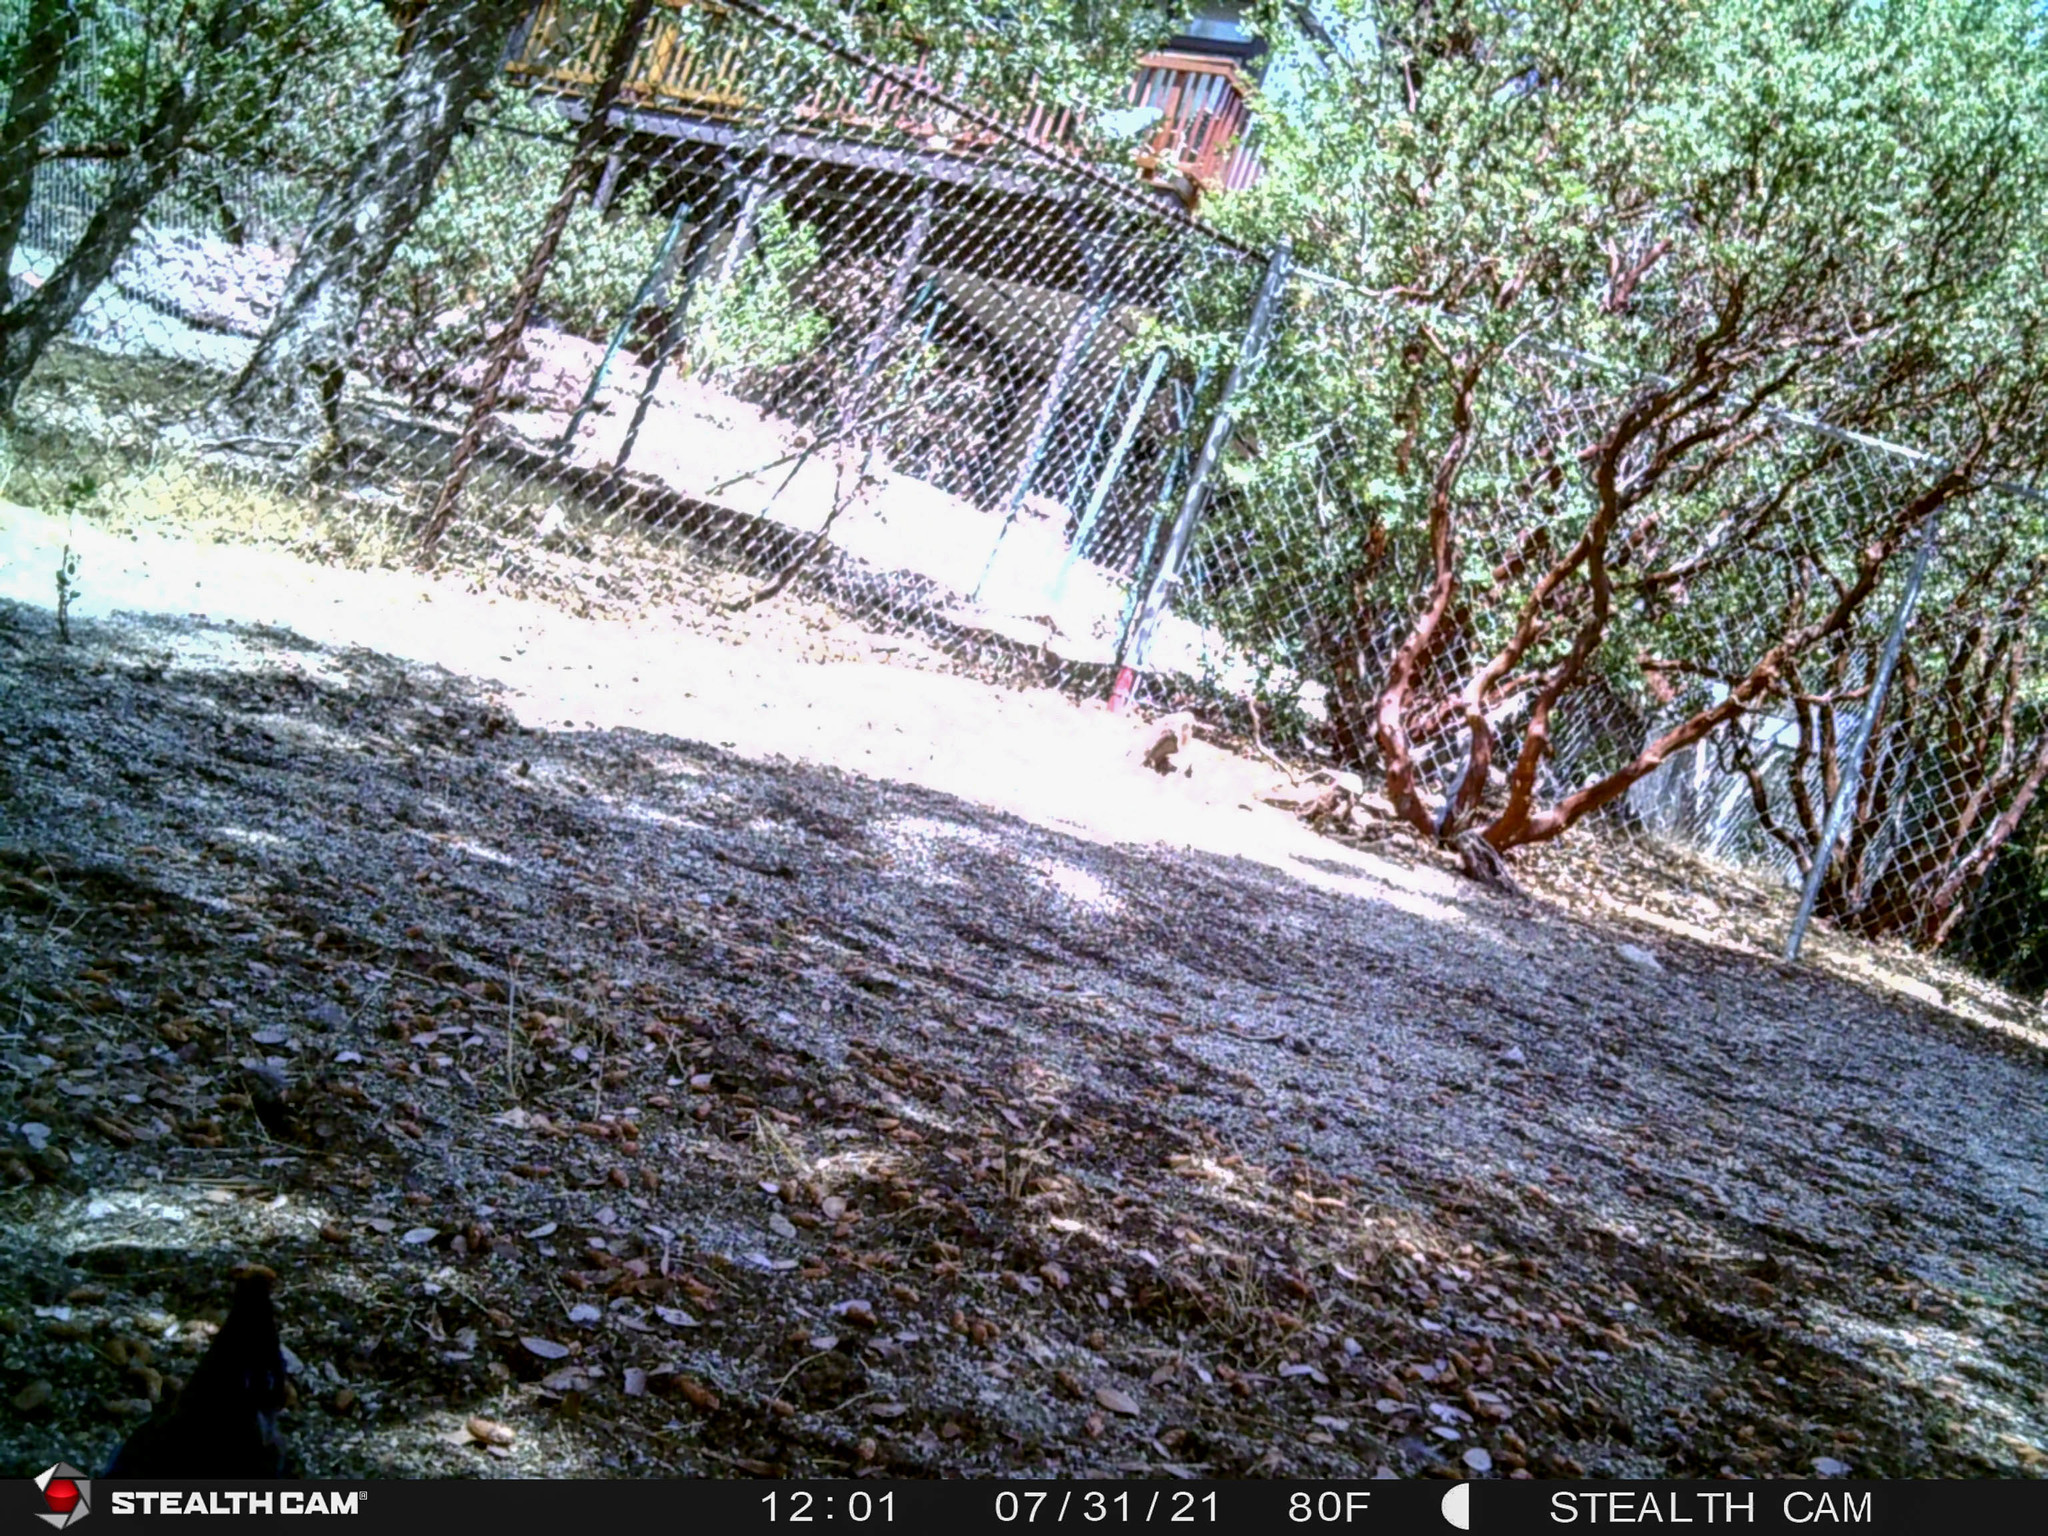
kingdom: Animalia
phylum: Chordata
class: Aves
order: Passeriformes
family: Corvidae
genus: Cyanocitta
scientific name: Cyanocitta stelleri
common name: Steller's jay
